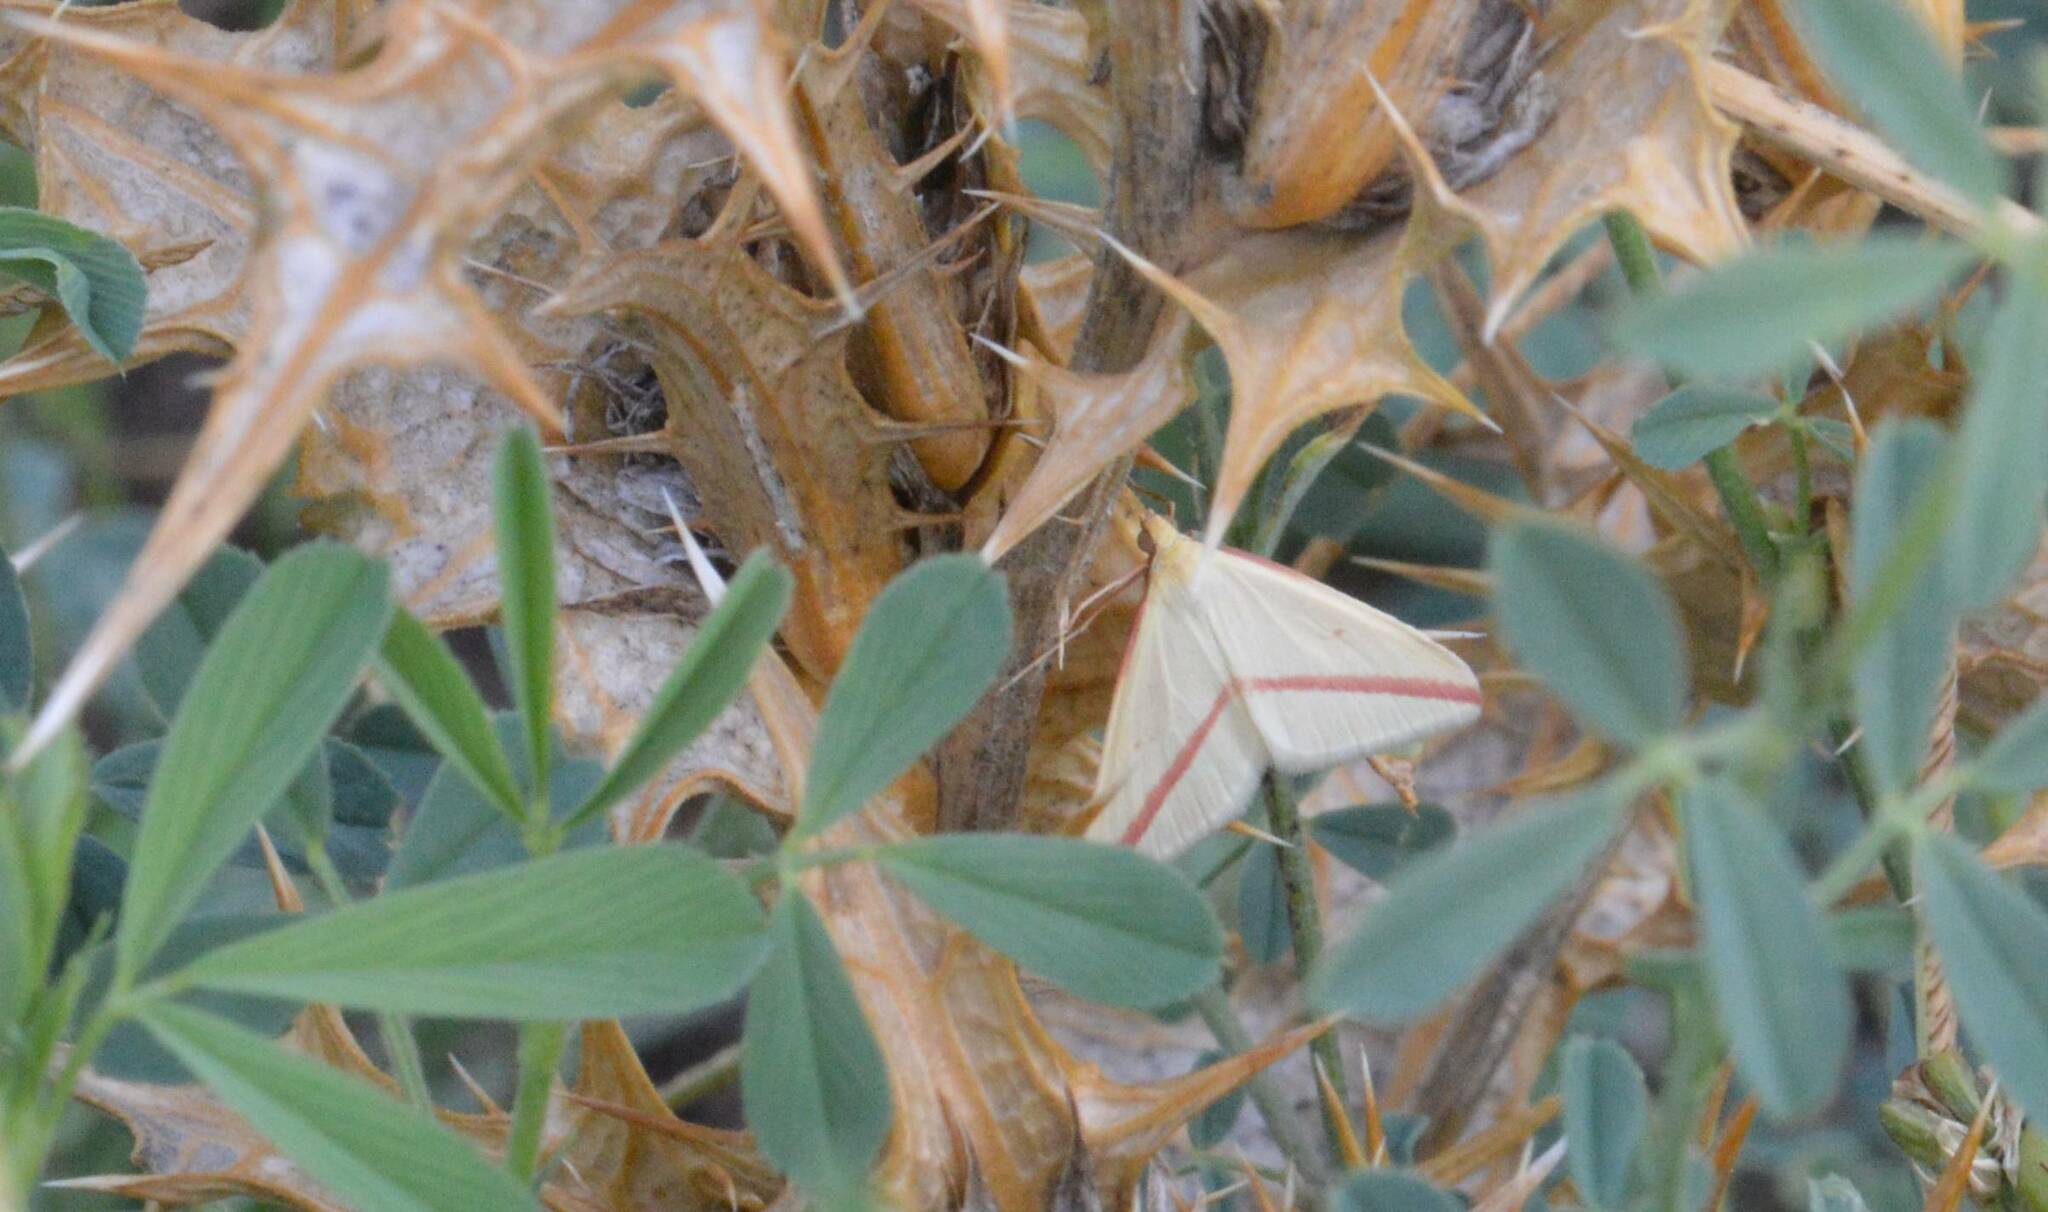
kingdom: Animalia
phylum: Arthropoda
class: Insecta
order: Lepidoptera
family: Geometridae
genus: Rhodometra
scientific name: Rhodometra sacraria
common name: Vestal
